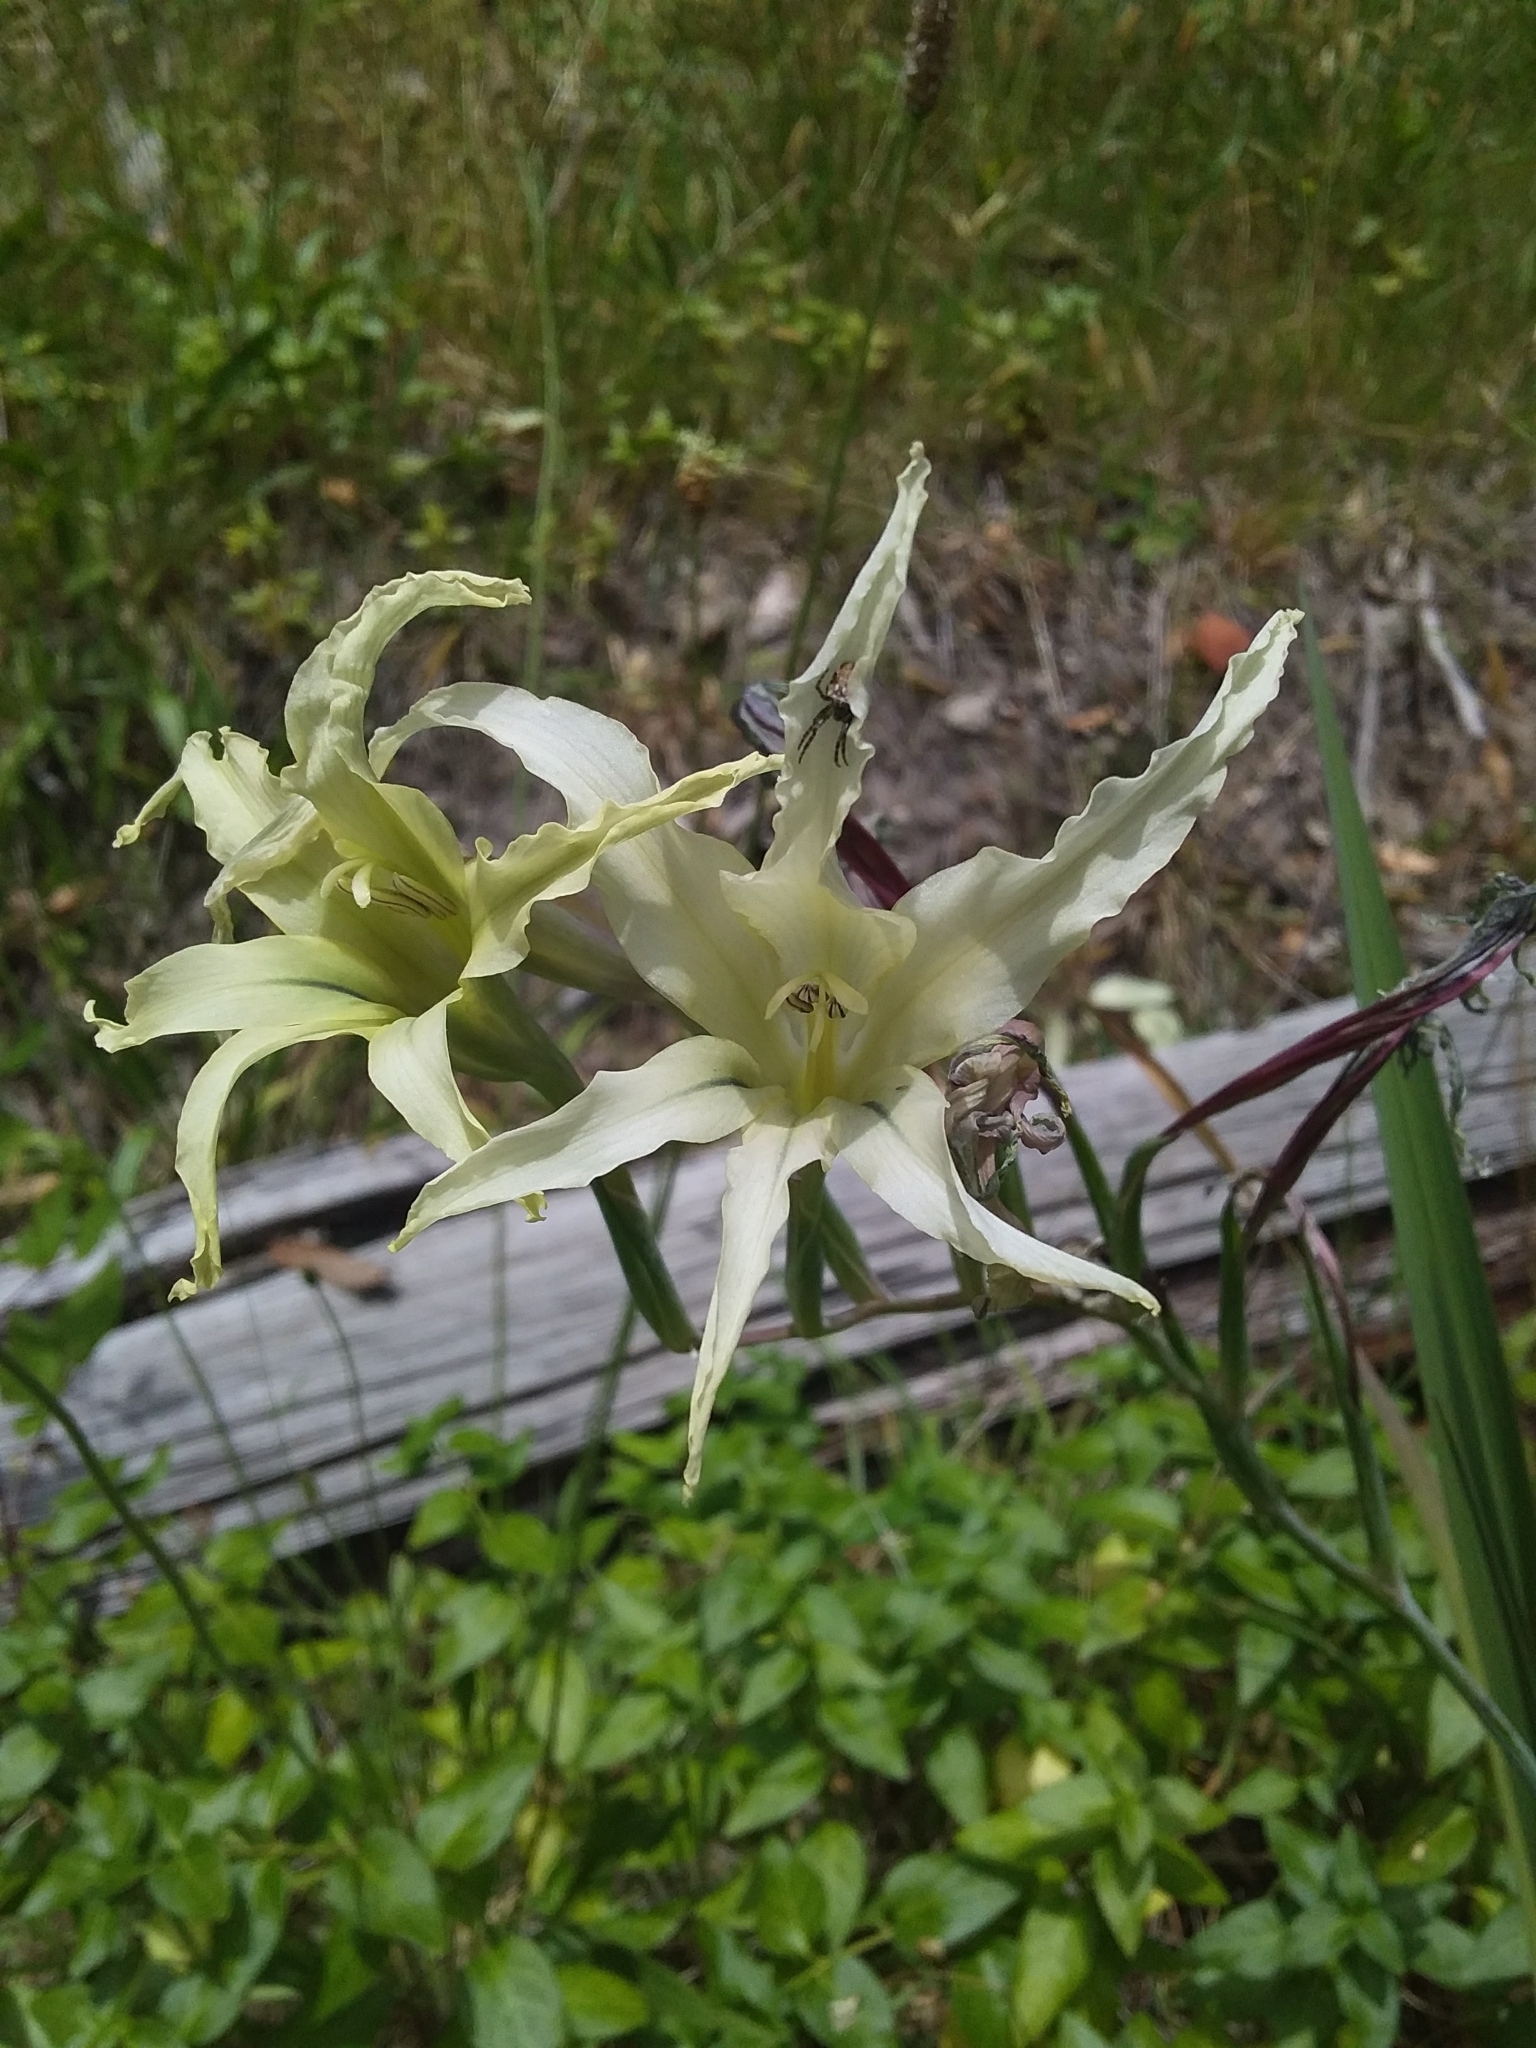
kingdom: Plantae
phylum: Tracheophyta
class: Liliopsida
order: Asparagales
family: Iridaceae
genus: Gladiolus
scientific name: Gladiolus undulatus
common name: Large painted-lady
